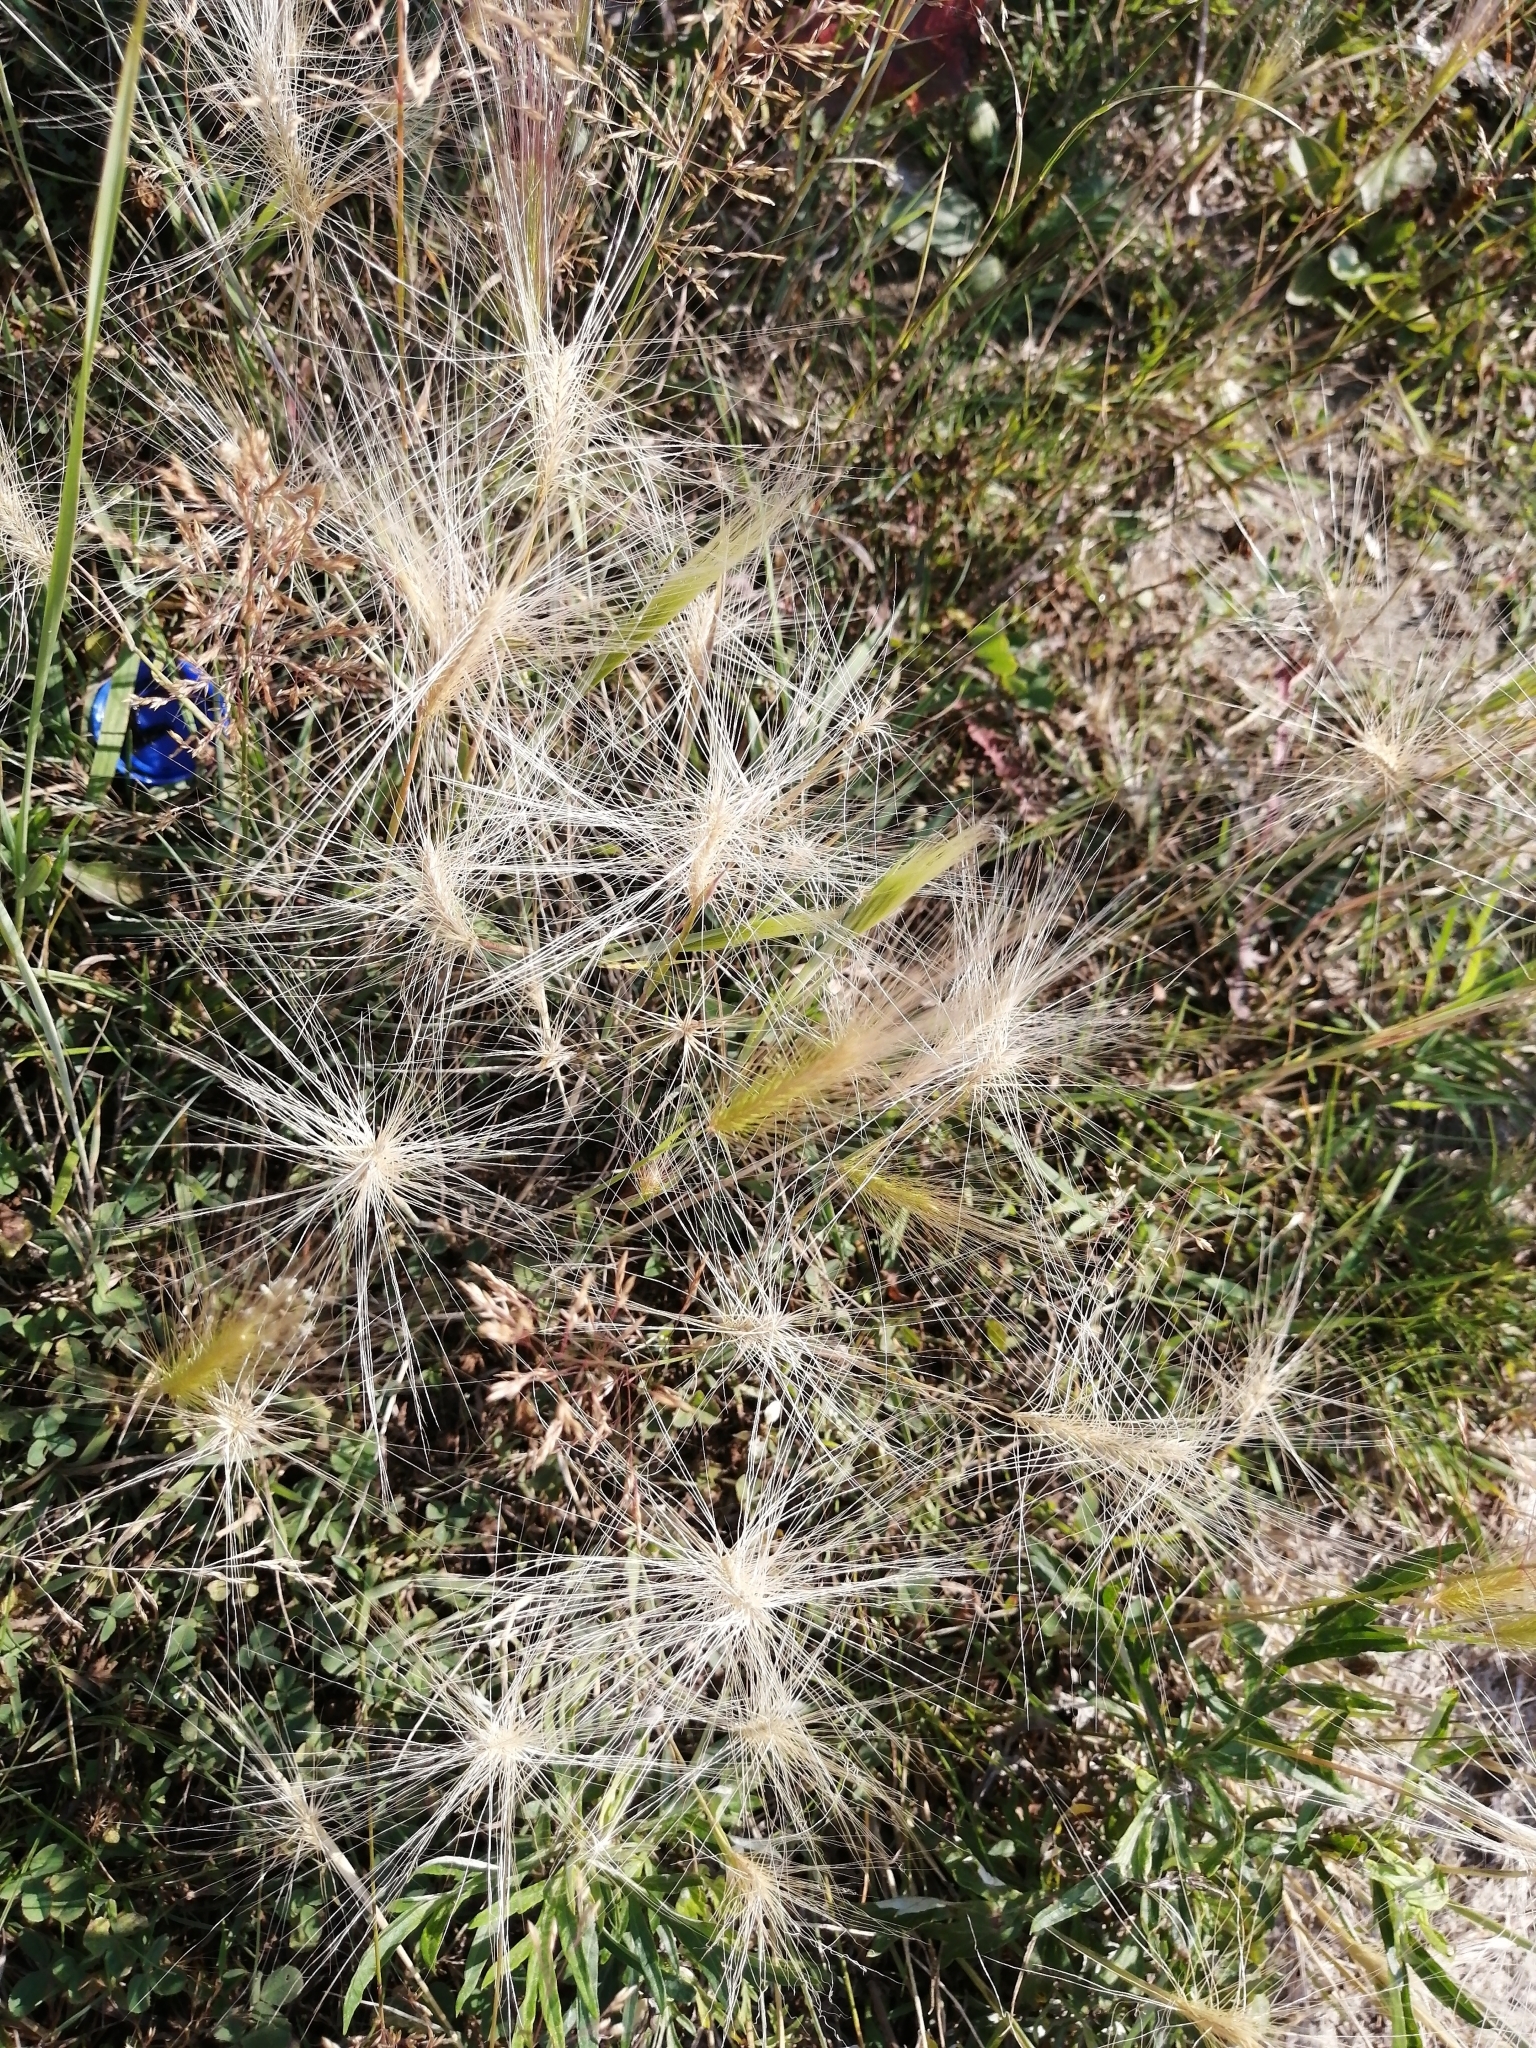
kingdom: Plantae
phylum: Tracheophyta
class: Liliopsida
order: Poales
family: Poaceae
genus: Hordeum
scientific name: Hordeum jubatum
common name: Foxtail barley
